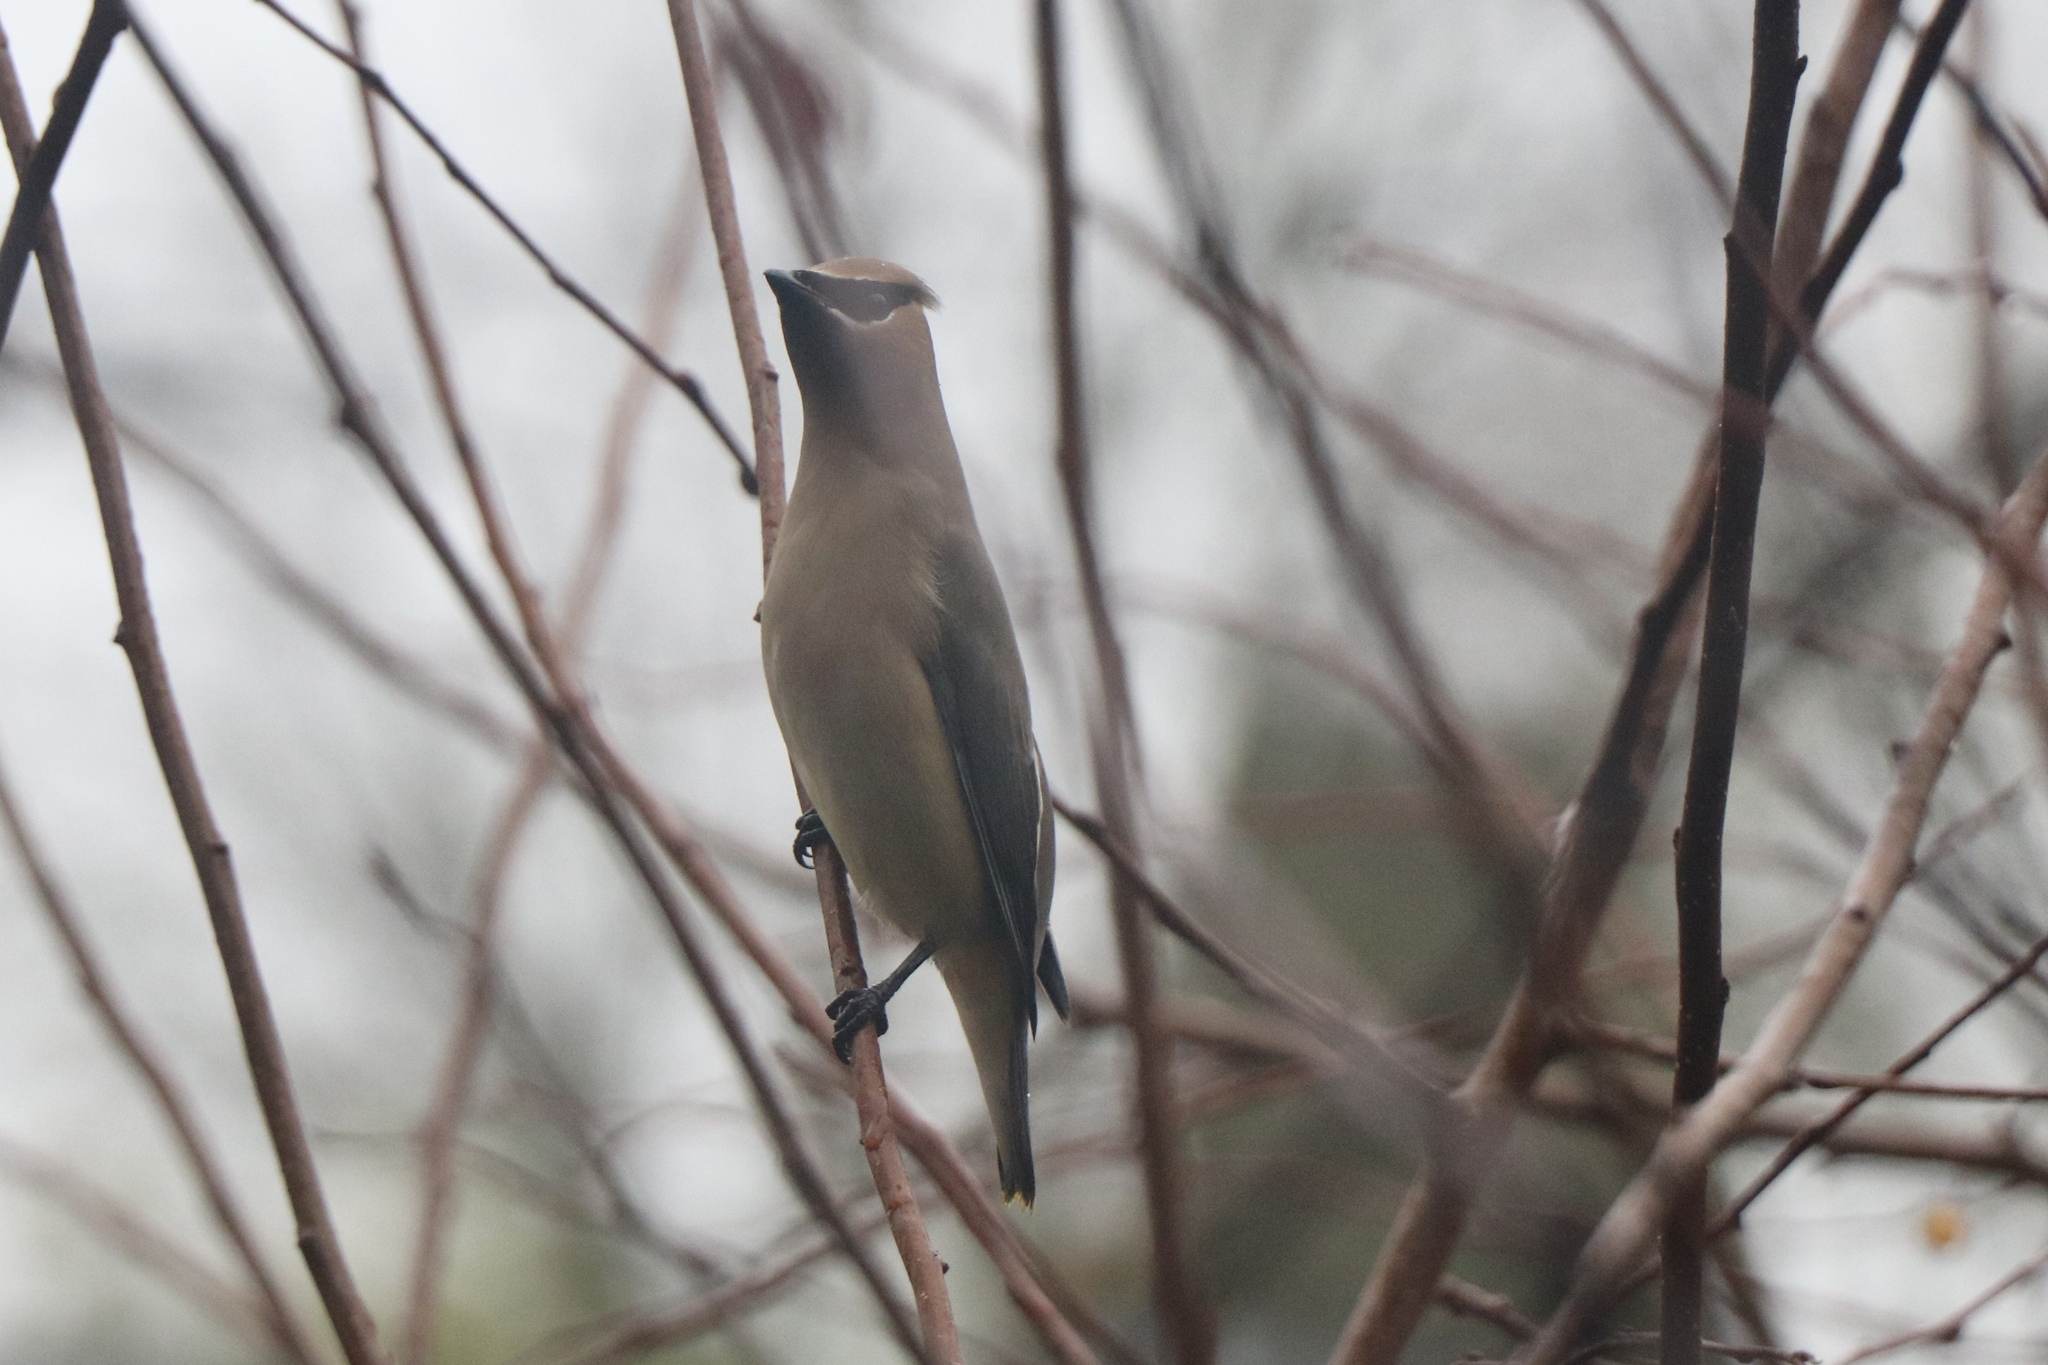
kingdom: Animalia
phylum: Chordata
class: Aves
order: Passeriformes
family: Bombycillidae
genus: Bombycilla
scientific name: Bombycilla cedrorum
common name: Cedar waxwing
